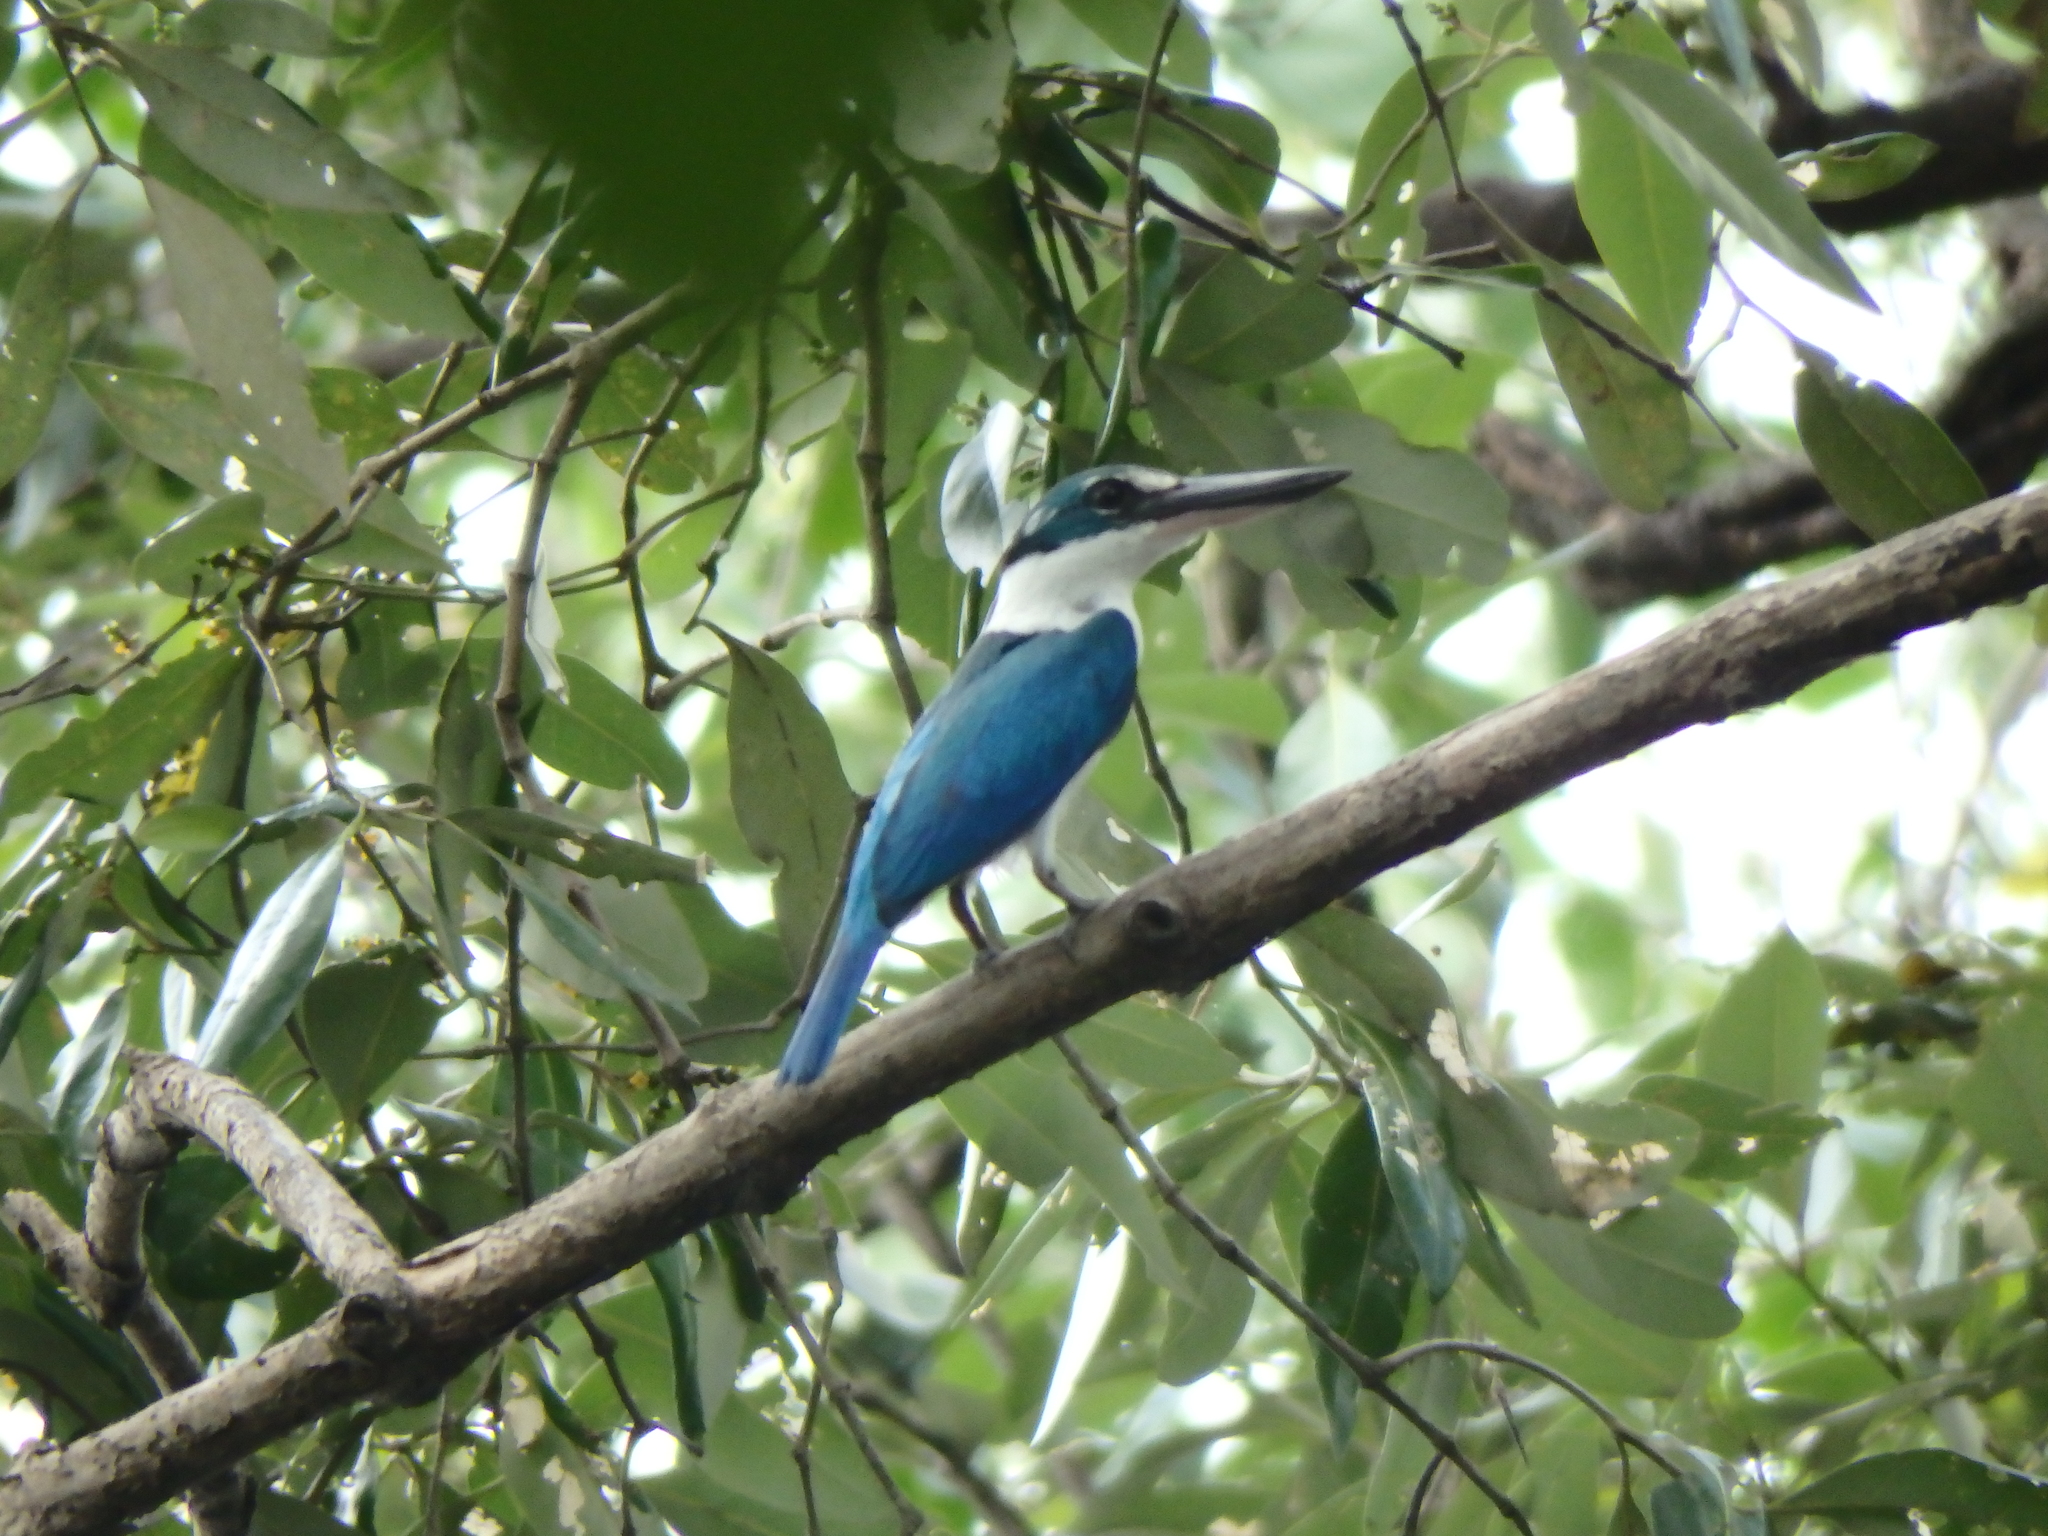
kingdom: Animalia
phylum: Chordata
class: Aves
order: Coraciiformes
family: Alcedinidae
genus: Todiramphus
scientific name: Todiramphus chloris
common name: Collared kingfisher
